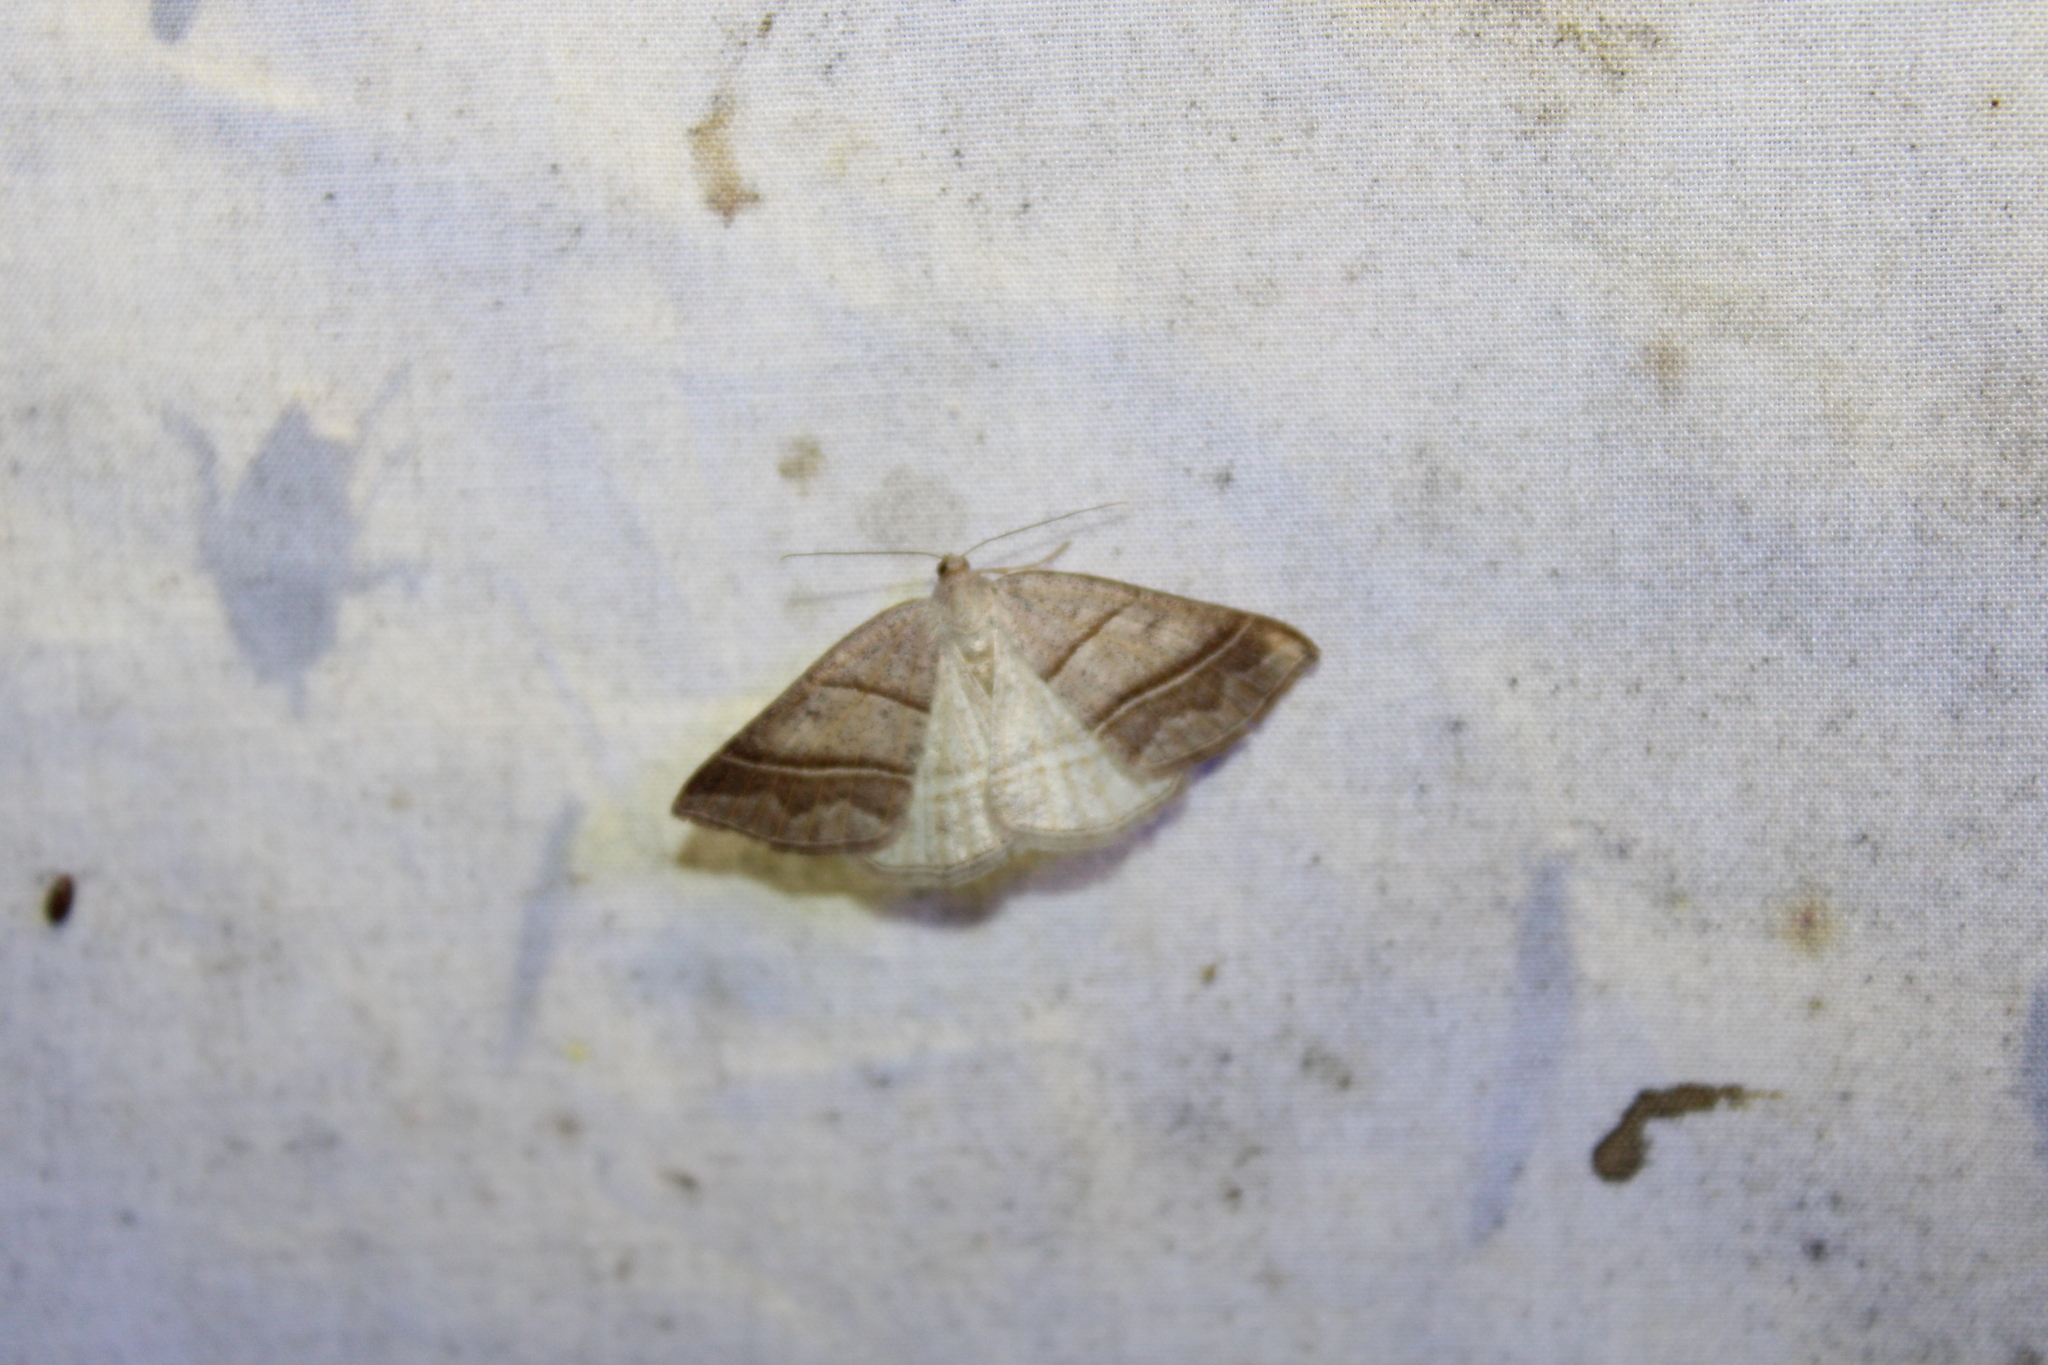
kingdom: Animalia
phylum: Arthropoda
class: Insecta
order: Lepidoptera
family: Pterophoridae
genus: Pterophorus
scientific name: Pterophorus Petrophora subaequaria
